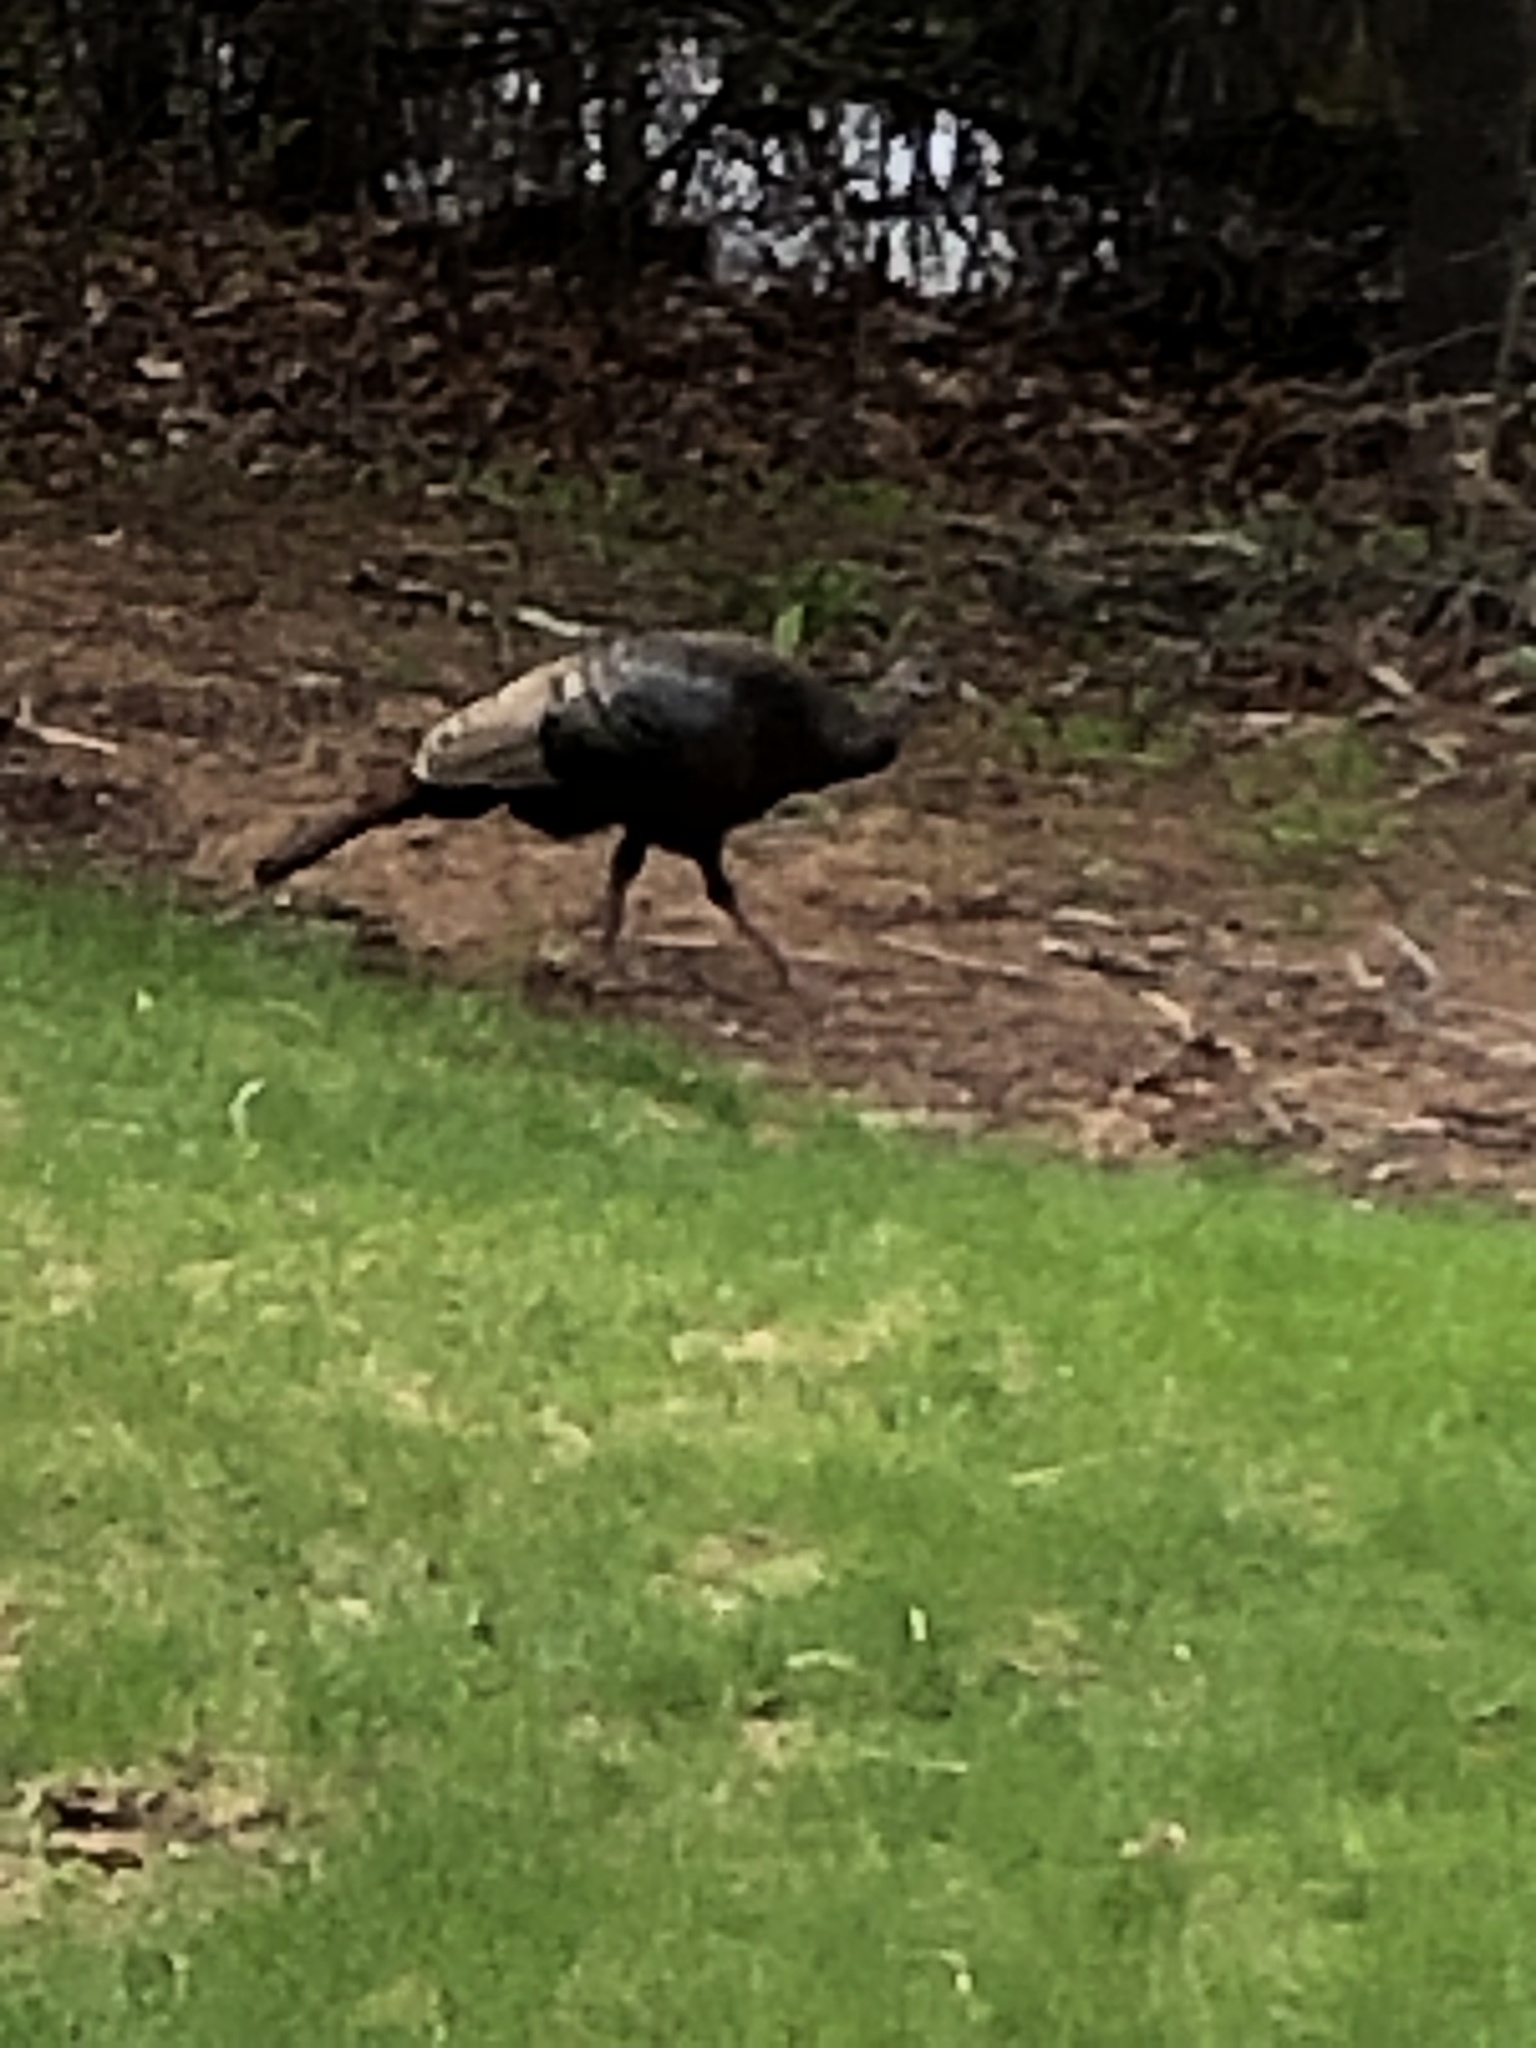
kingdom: Animalia
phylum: Chordata
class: Aves
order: Galliformes
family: Phasianidae
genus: Meleagris
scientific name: Meleagris gallopavo
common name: Wild turkey
